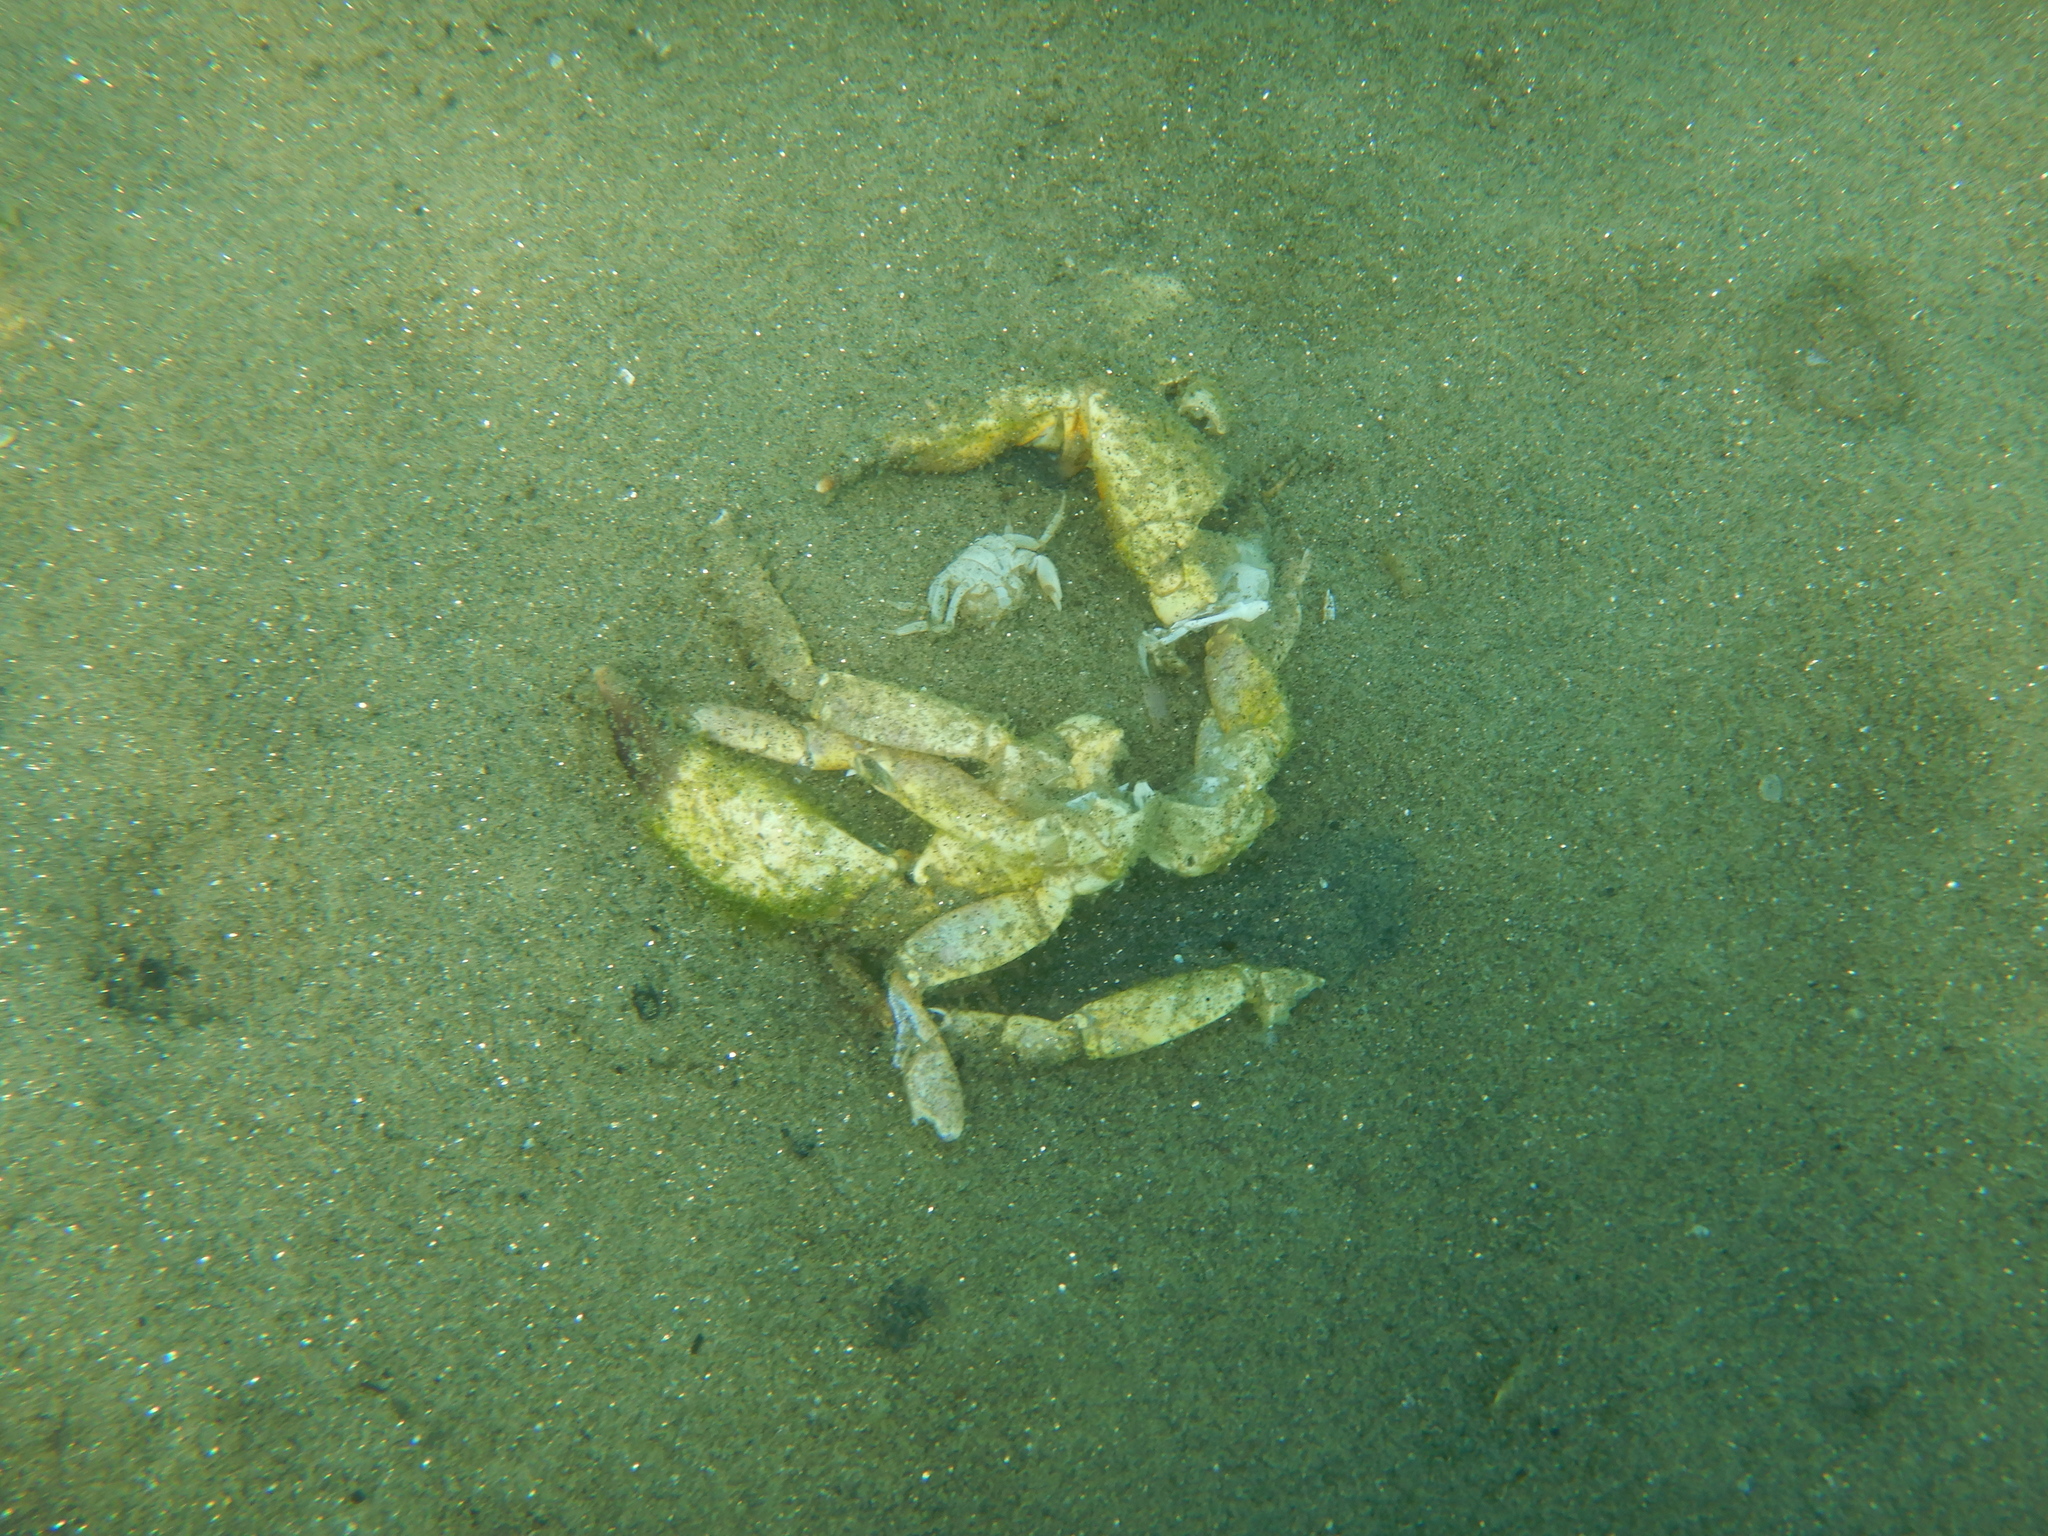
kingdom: Animalia
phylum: Arthropoda
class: Malacostraca
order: Decapoda
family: Portunidae
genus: Callinectes
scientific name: Callinectes sapidus
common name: Blue crab
